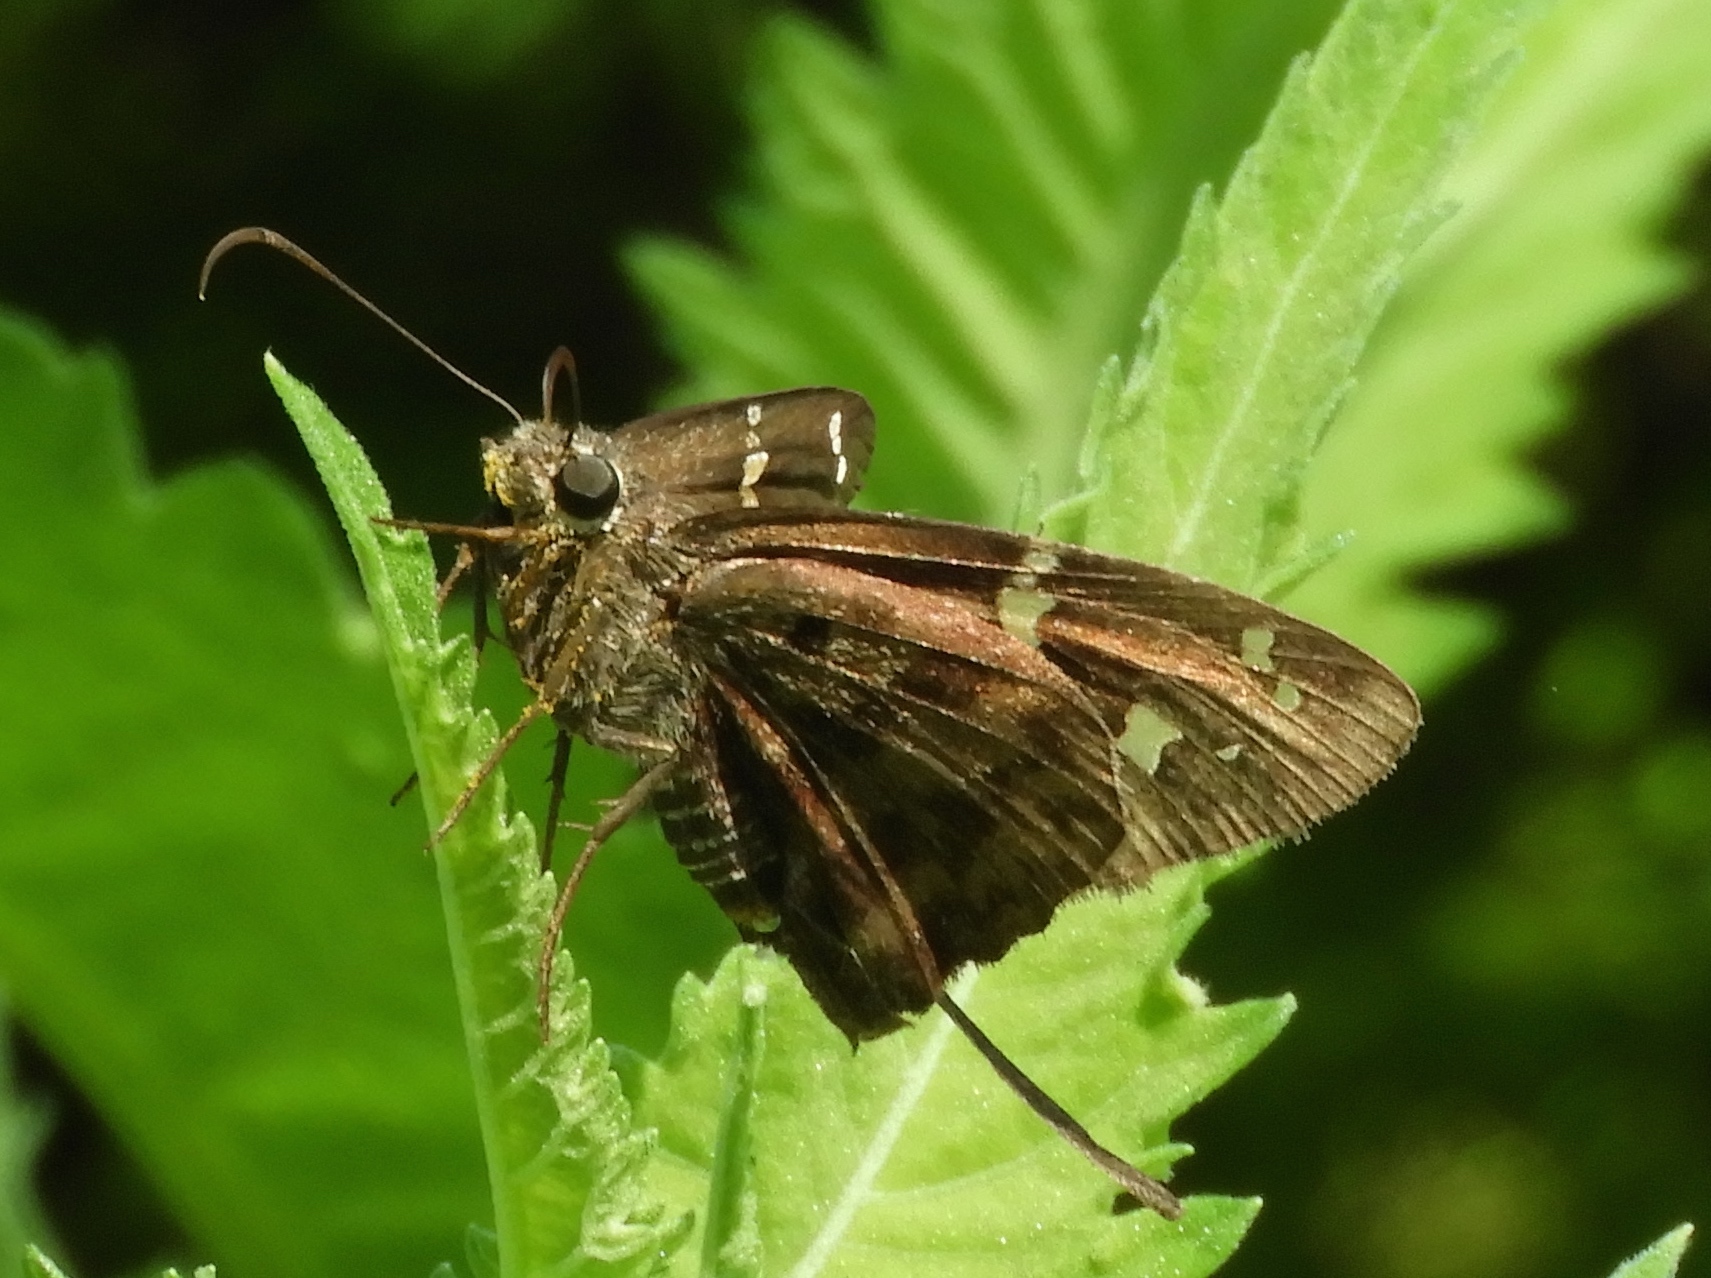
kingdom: Animalia
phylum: Arthropoda
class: Insecta
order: Lepidoptera
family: Hesperiidae
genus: Thorybes
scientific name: Thorybes
